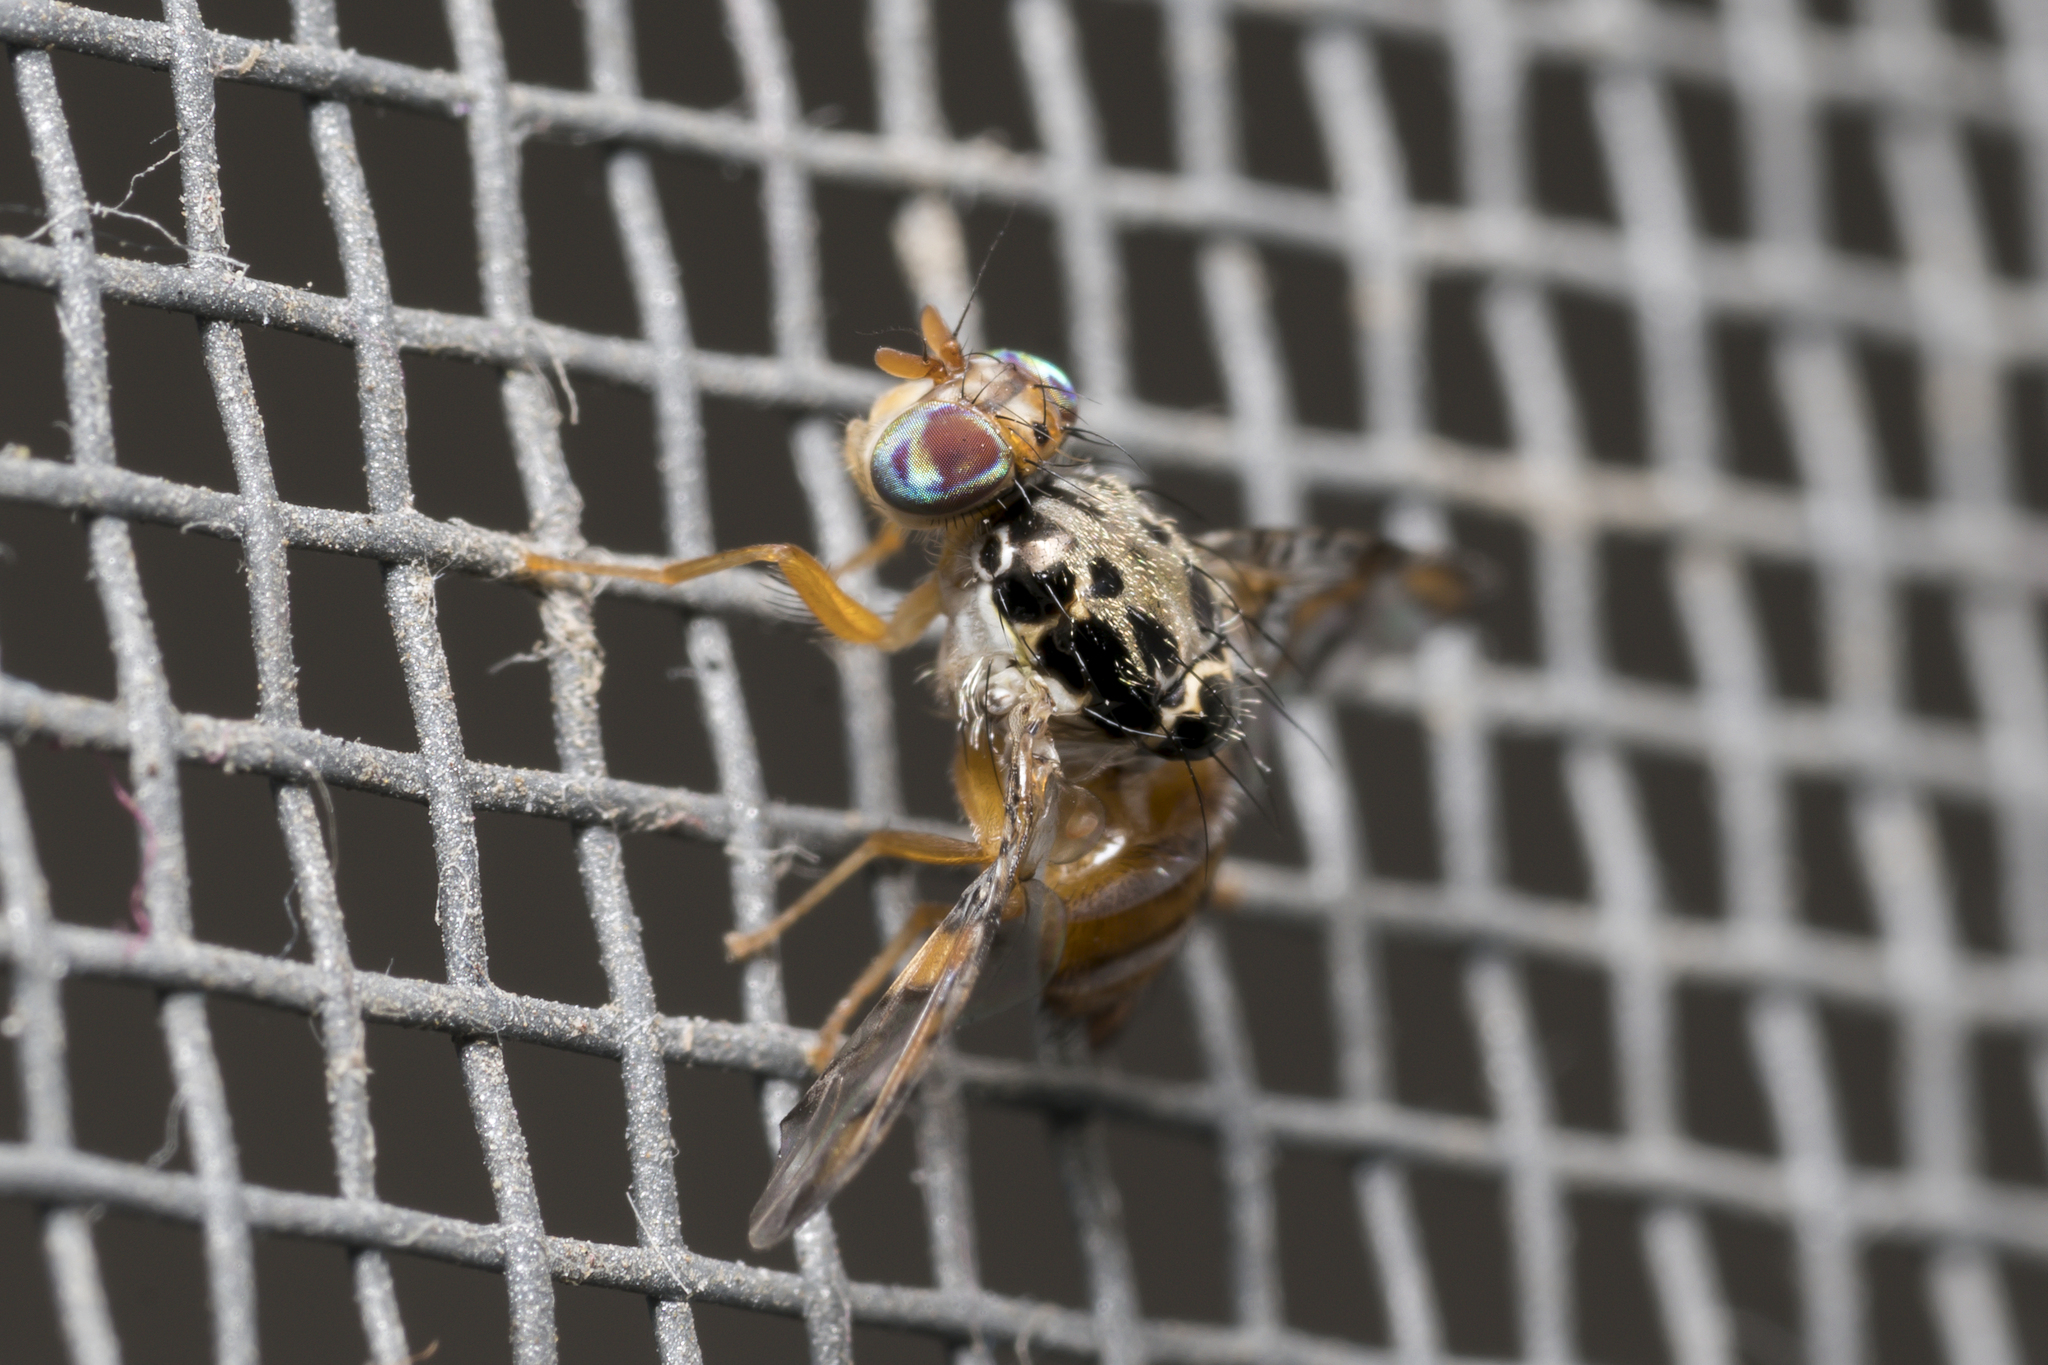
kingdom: Animalia
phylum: Arthropoda
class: Insecta
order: Diptera
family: Tephritidae
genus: Ceratitis
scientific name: Ceratitis capitata
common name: Mediterranean fruit fly
